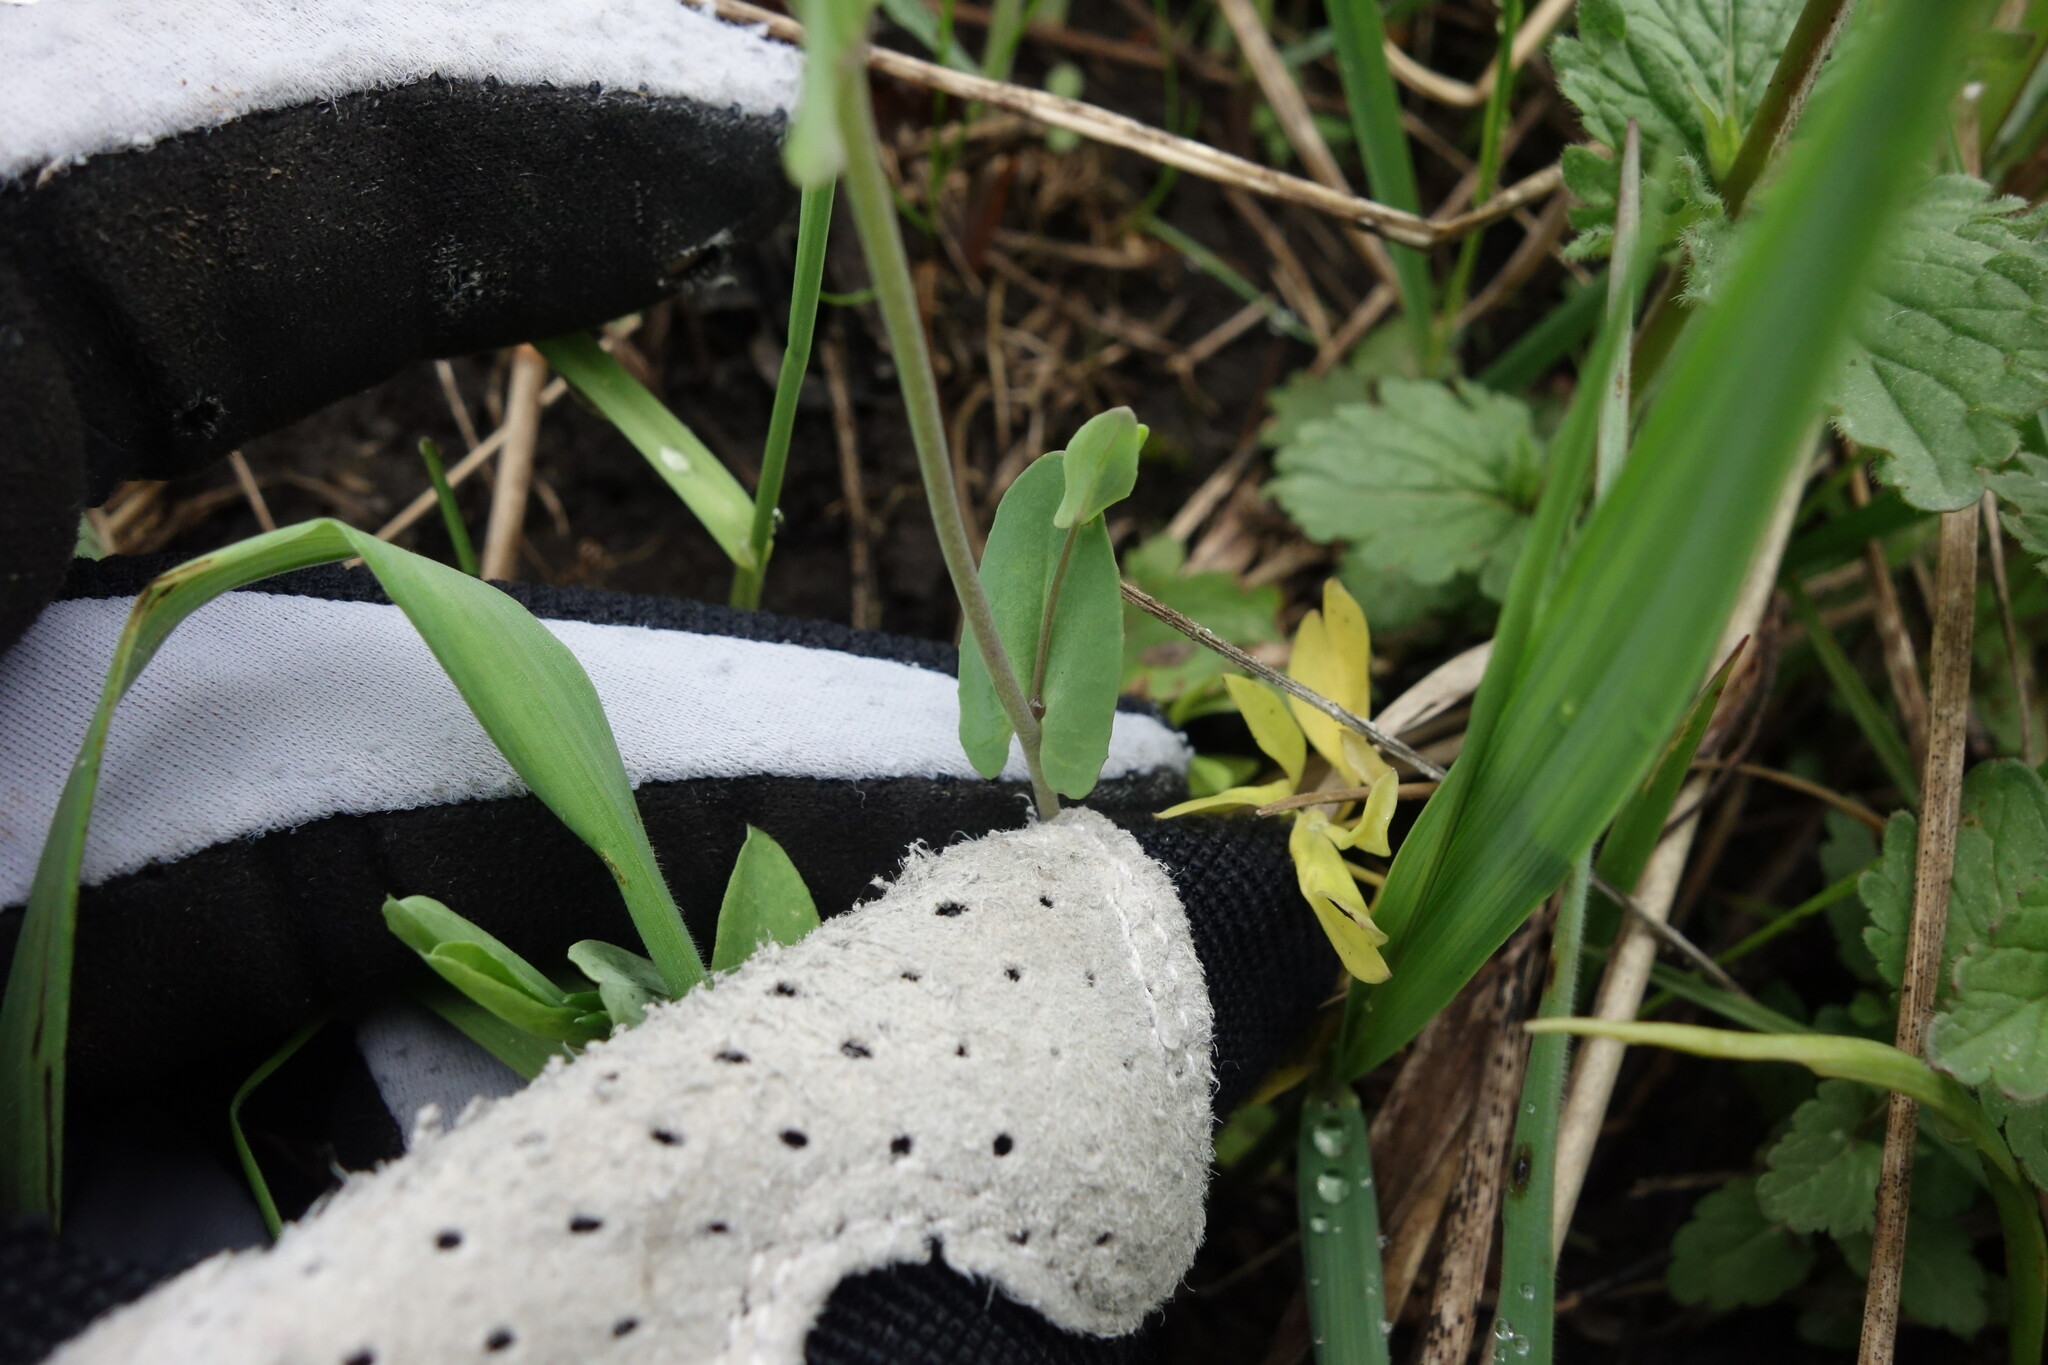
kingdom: Plantae
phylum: Tracheophyta
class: Magnoliopsida
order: Brassicales
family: Brassicaceae
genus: Noccaea
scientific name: Noccaea perfoliata
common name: Perfoliate pennycress
